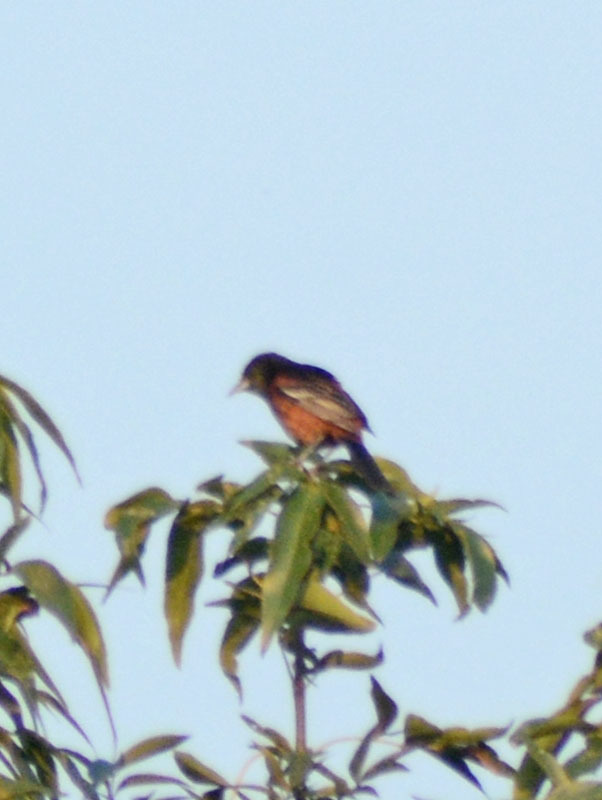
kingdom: Animalia
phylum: Chordata
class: Aves
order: Passeriformes
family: Icteridae
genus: Icterus
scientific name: Icterus spurius
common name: Orchard oriole
